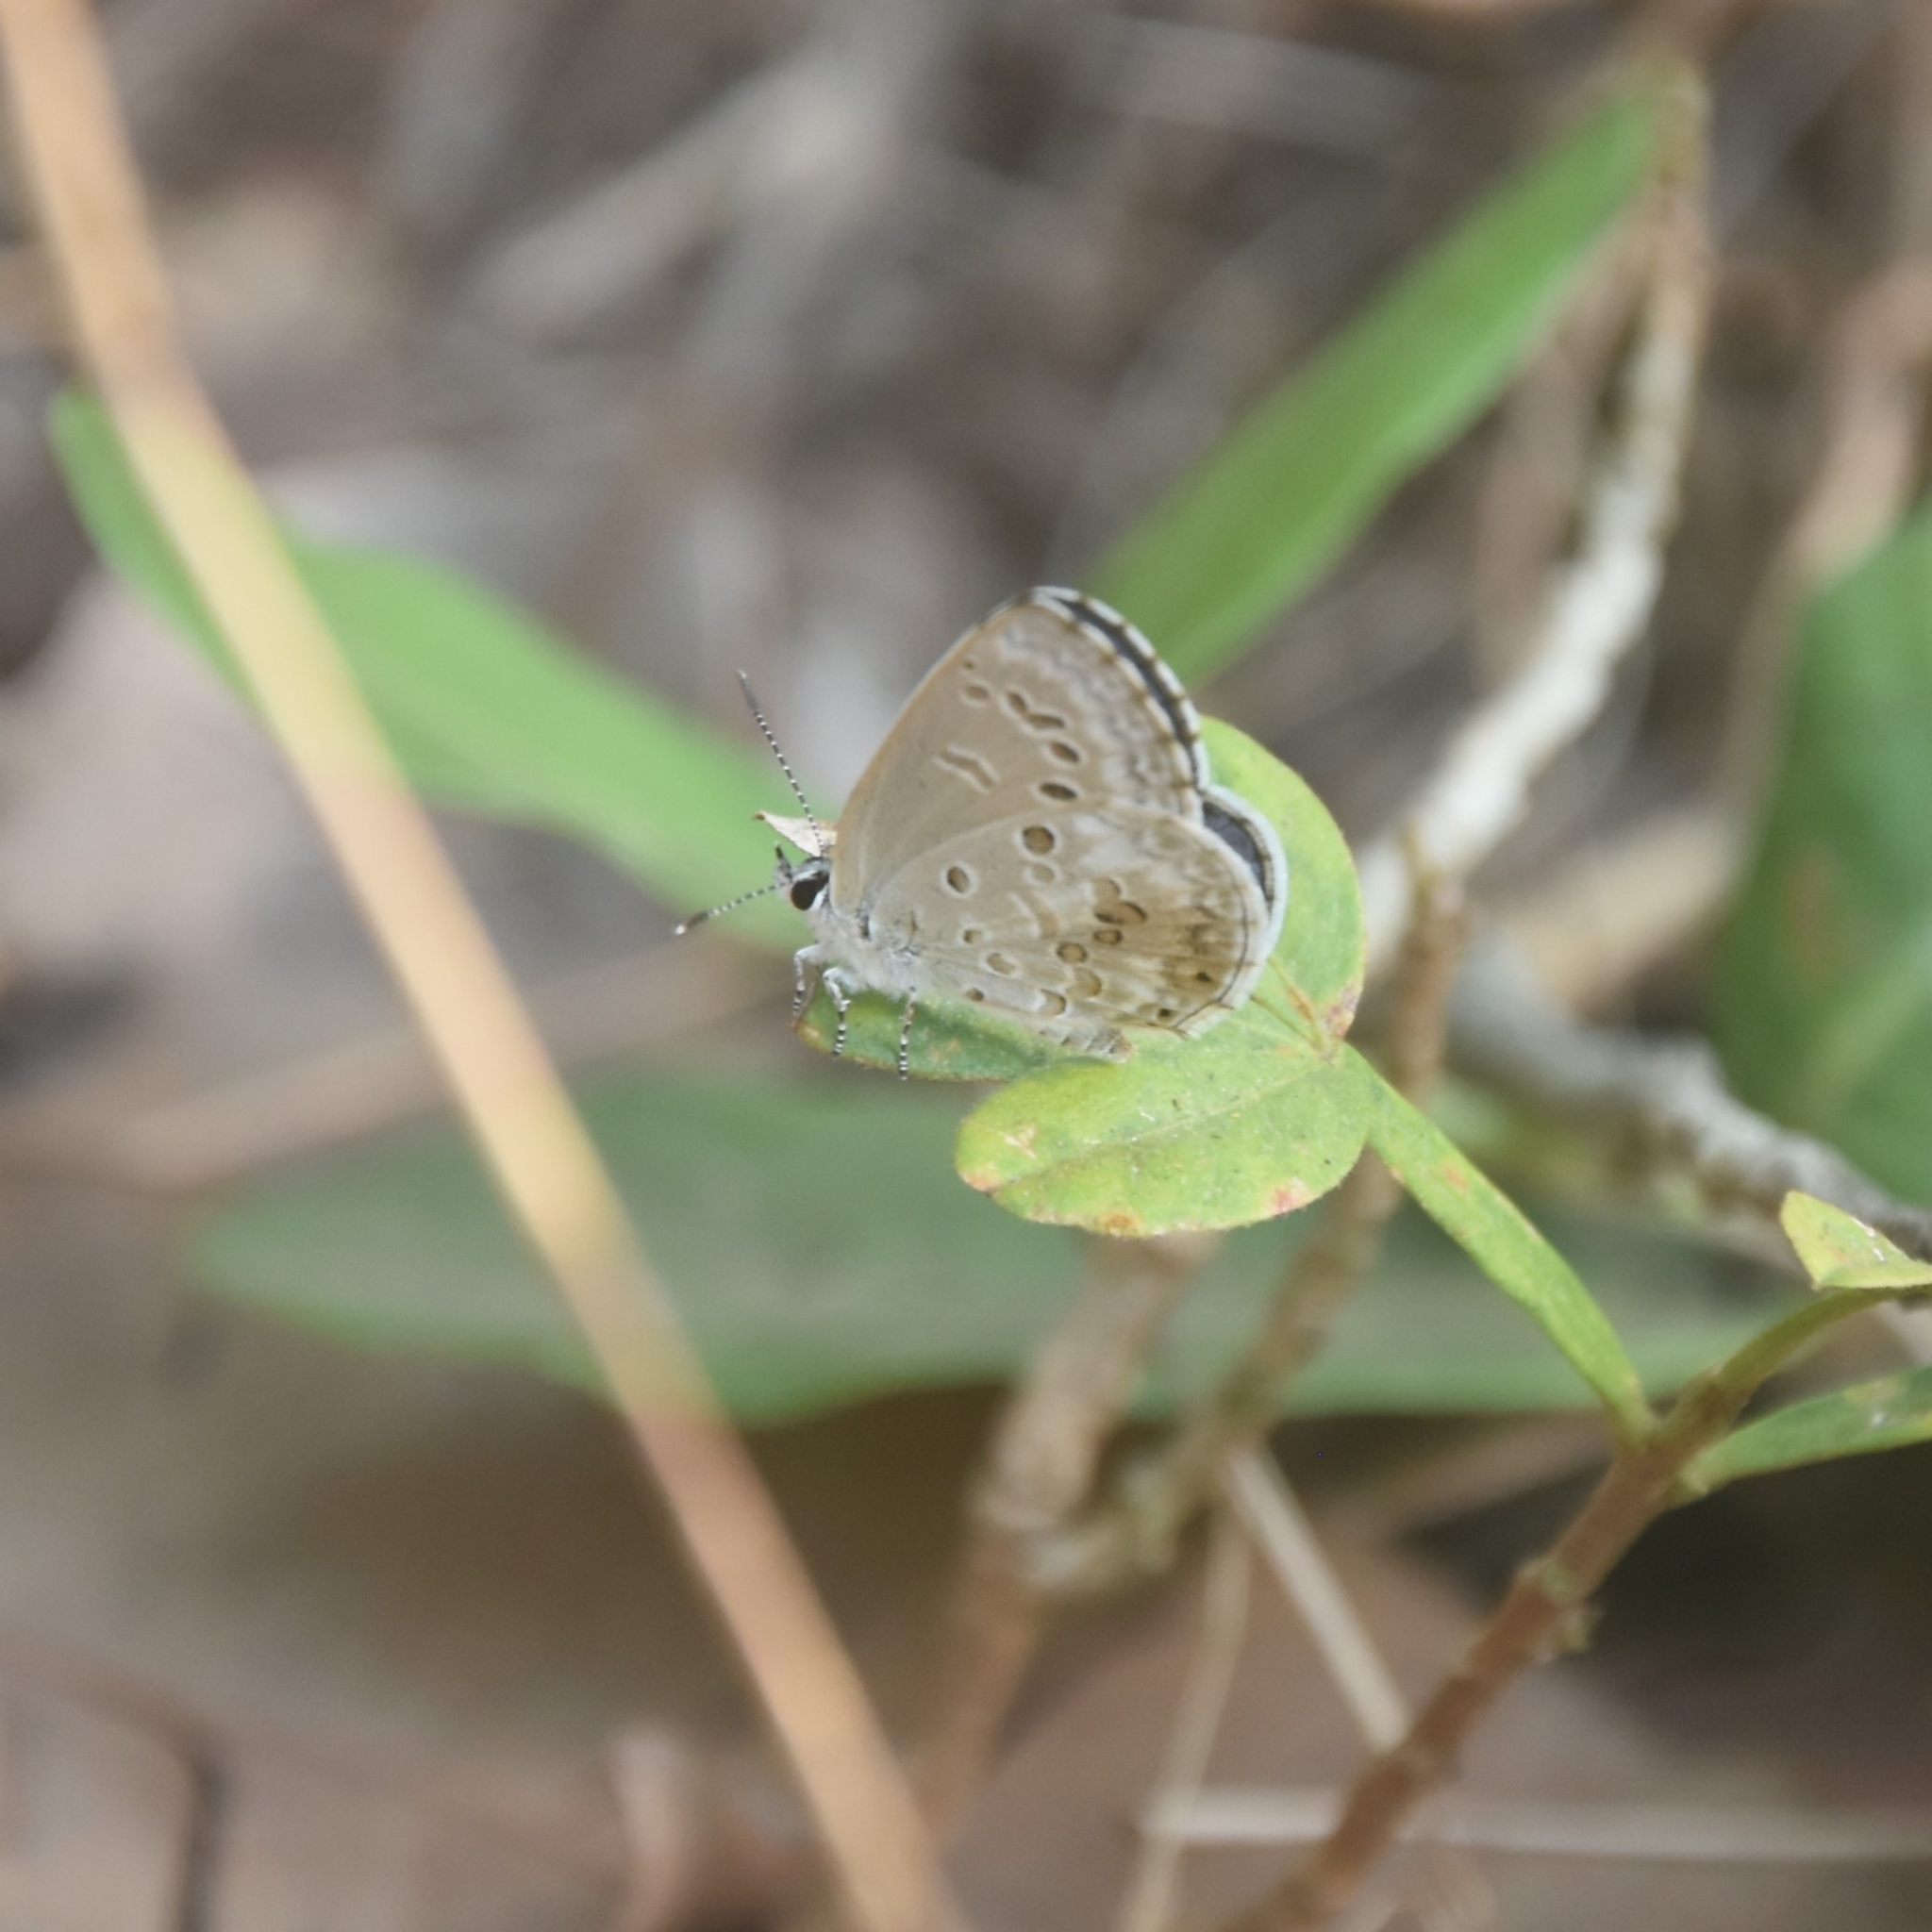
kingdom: Animalia
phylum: Arthropoda
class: Insecta
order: Lepidoptera
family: Lycaenidae
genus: Chilades
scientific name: Chilades laius
